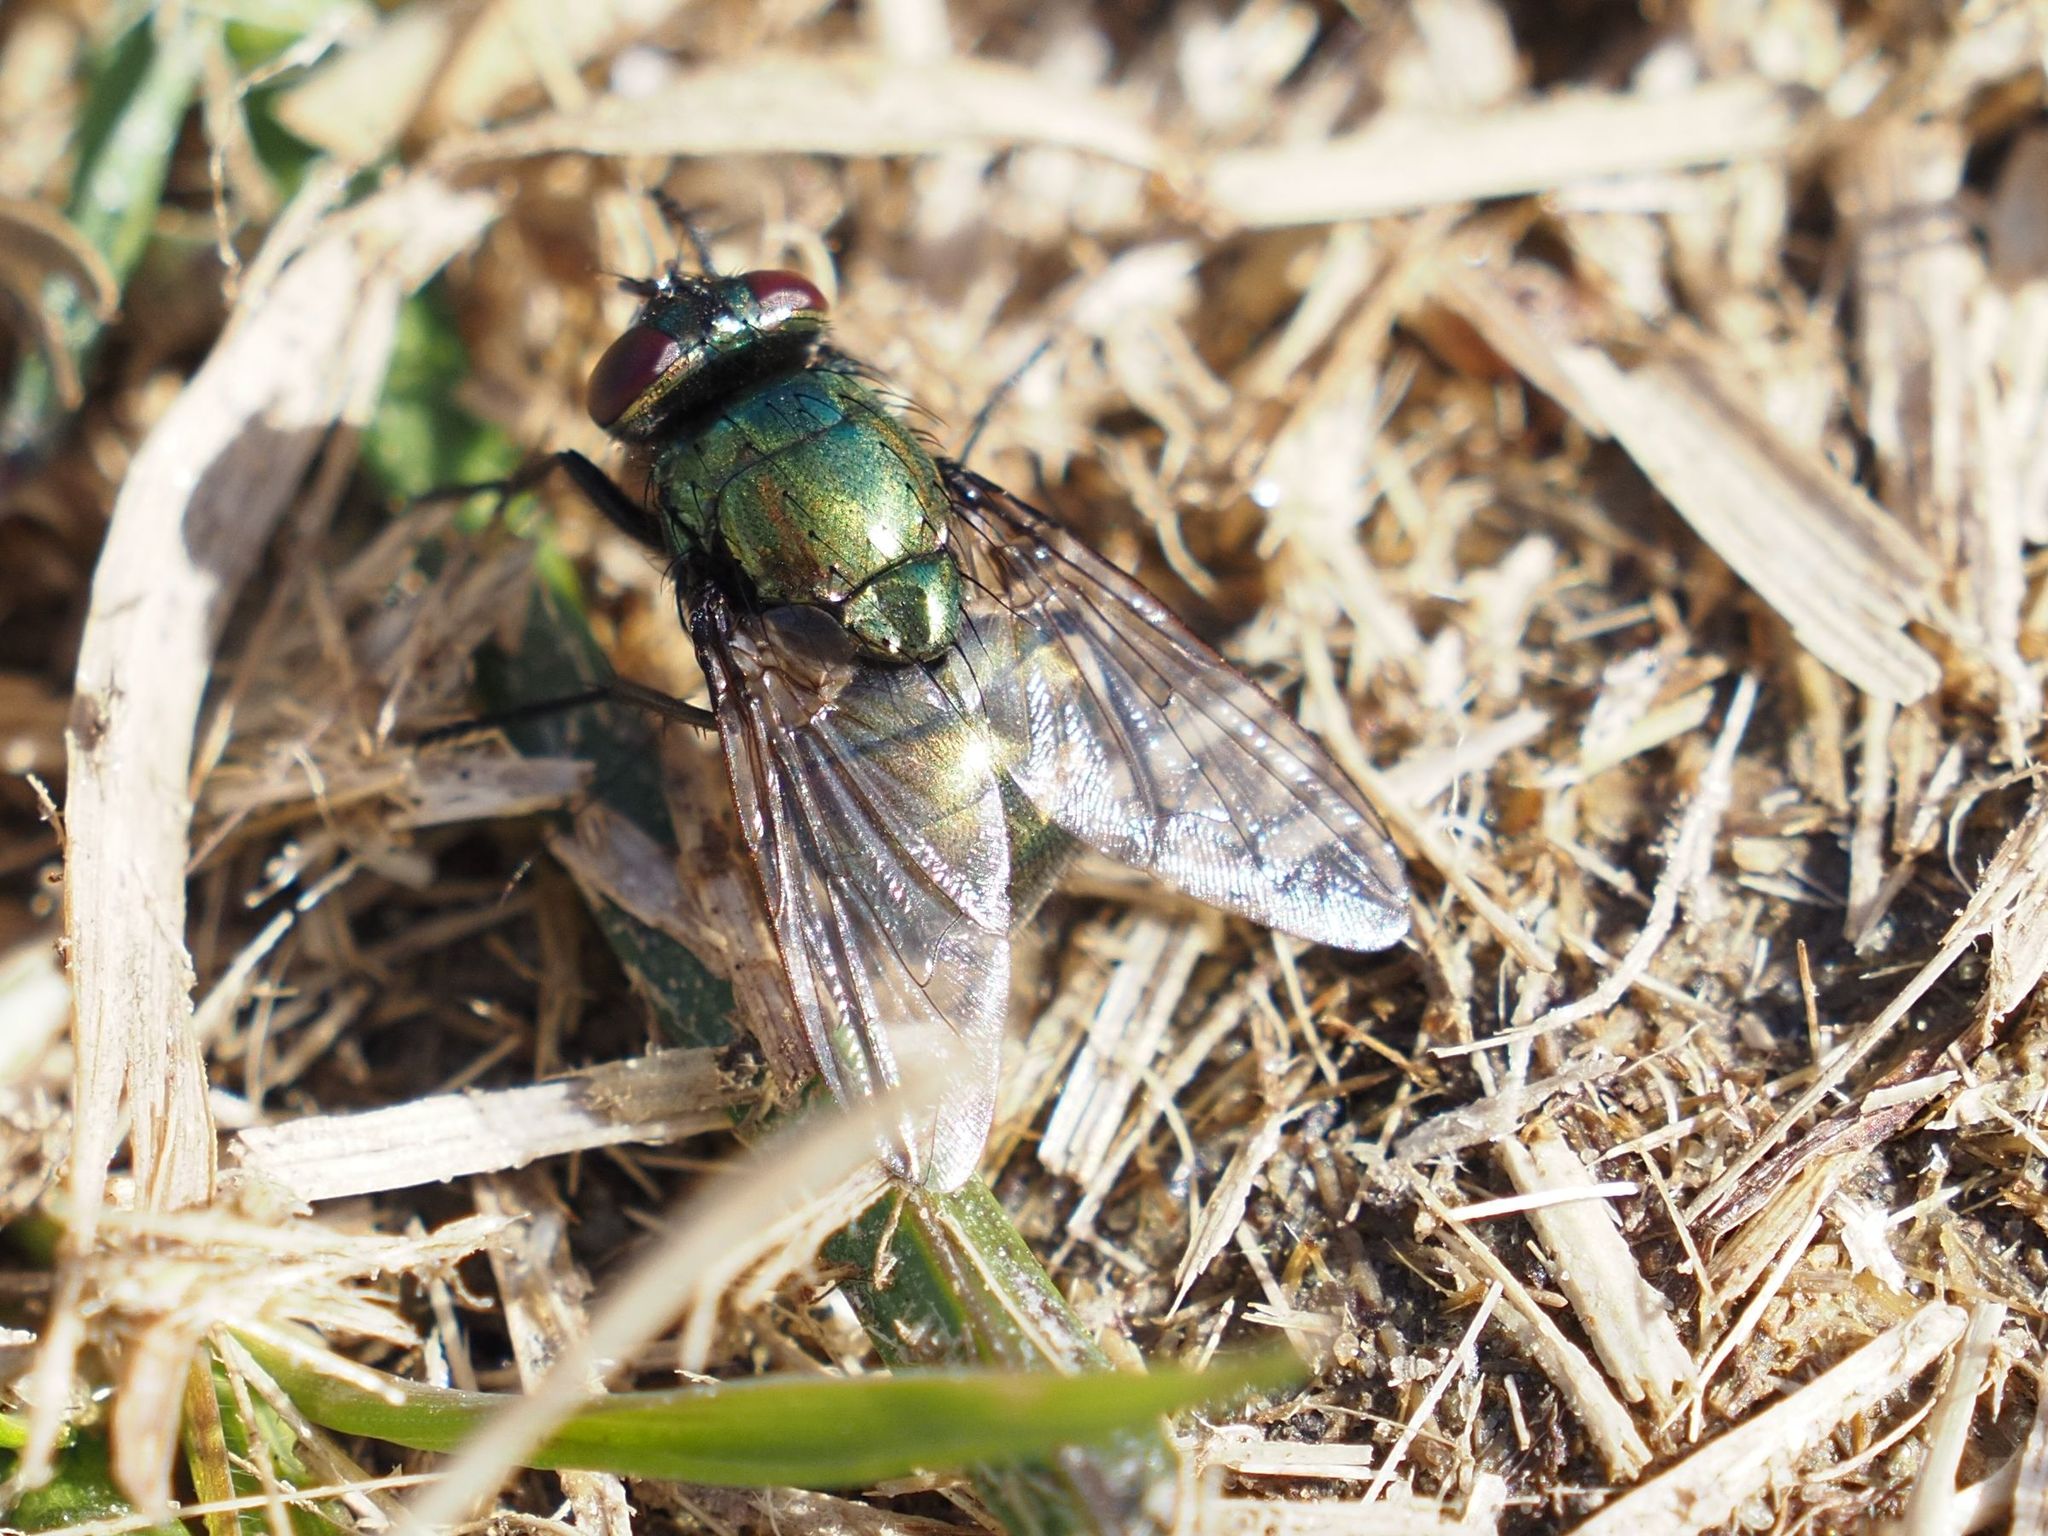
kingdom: Animalia
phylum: Arthropoda
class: Insecta
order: Diptera
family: Muscidae
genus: Neomyia
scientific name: Neomyia cornicina
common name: House fly
